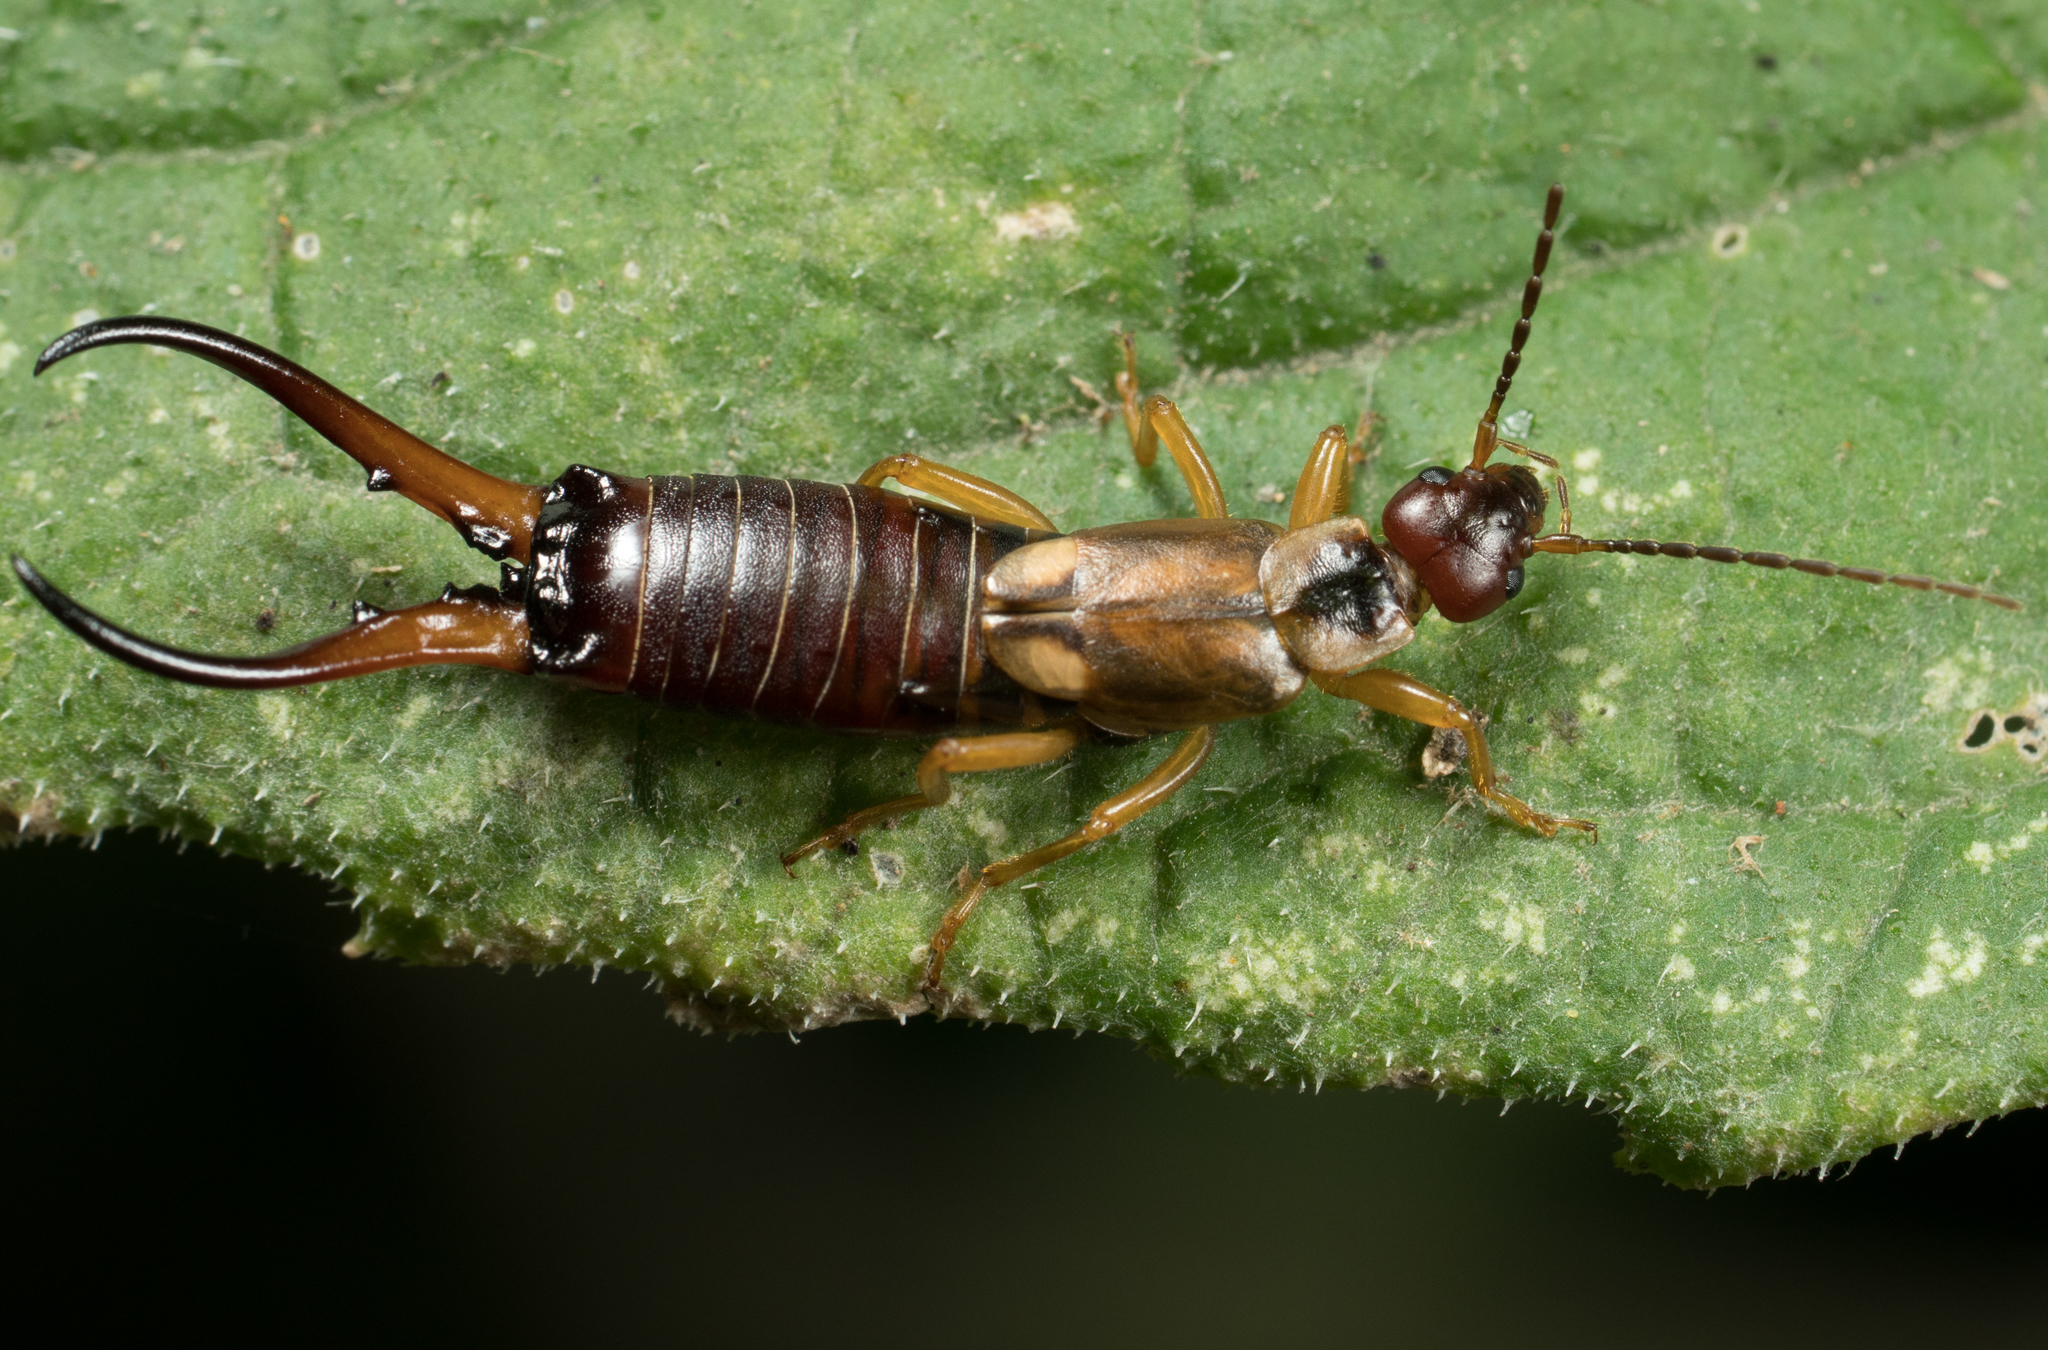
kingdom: Animalia
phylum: Arthropoda
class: Insecta
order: Dermaptera
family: Forficulidae
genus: Forficula
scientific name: Forficula
